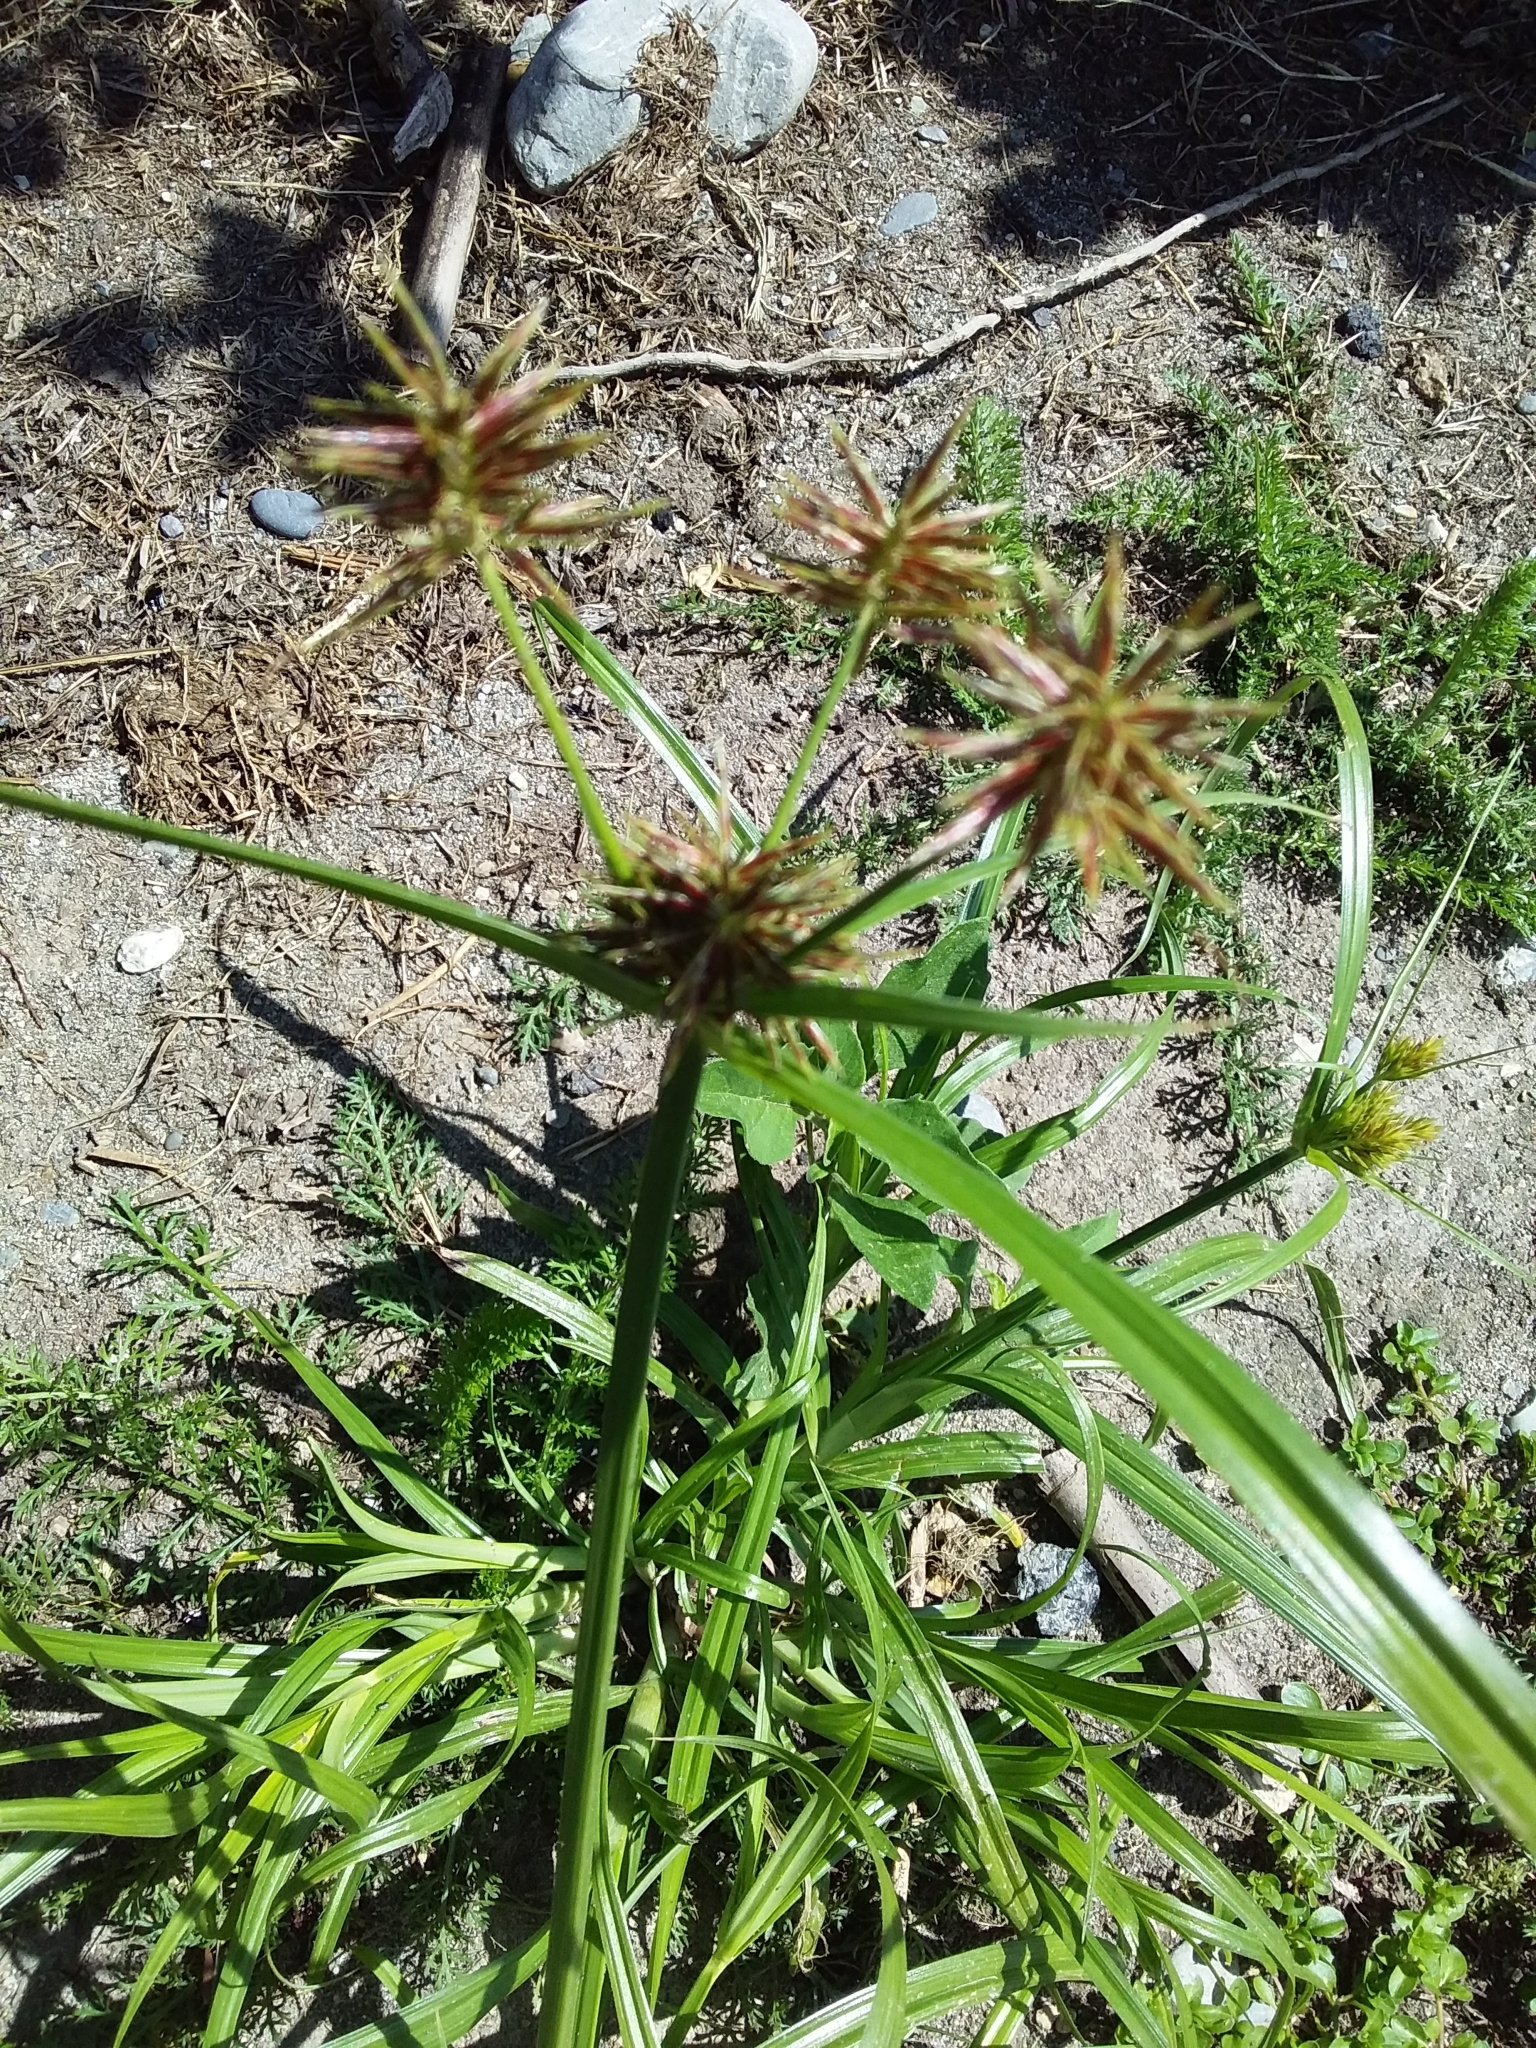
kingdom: Plantae
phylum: Tracheophyta
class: Liliopsida
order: Poales
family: Cyperaceae
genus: Cyperus
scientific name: Cyperus congestus
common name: Dense flat sedge
